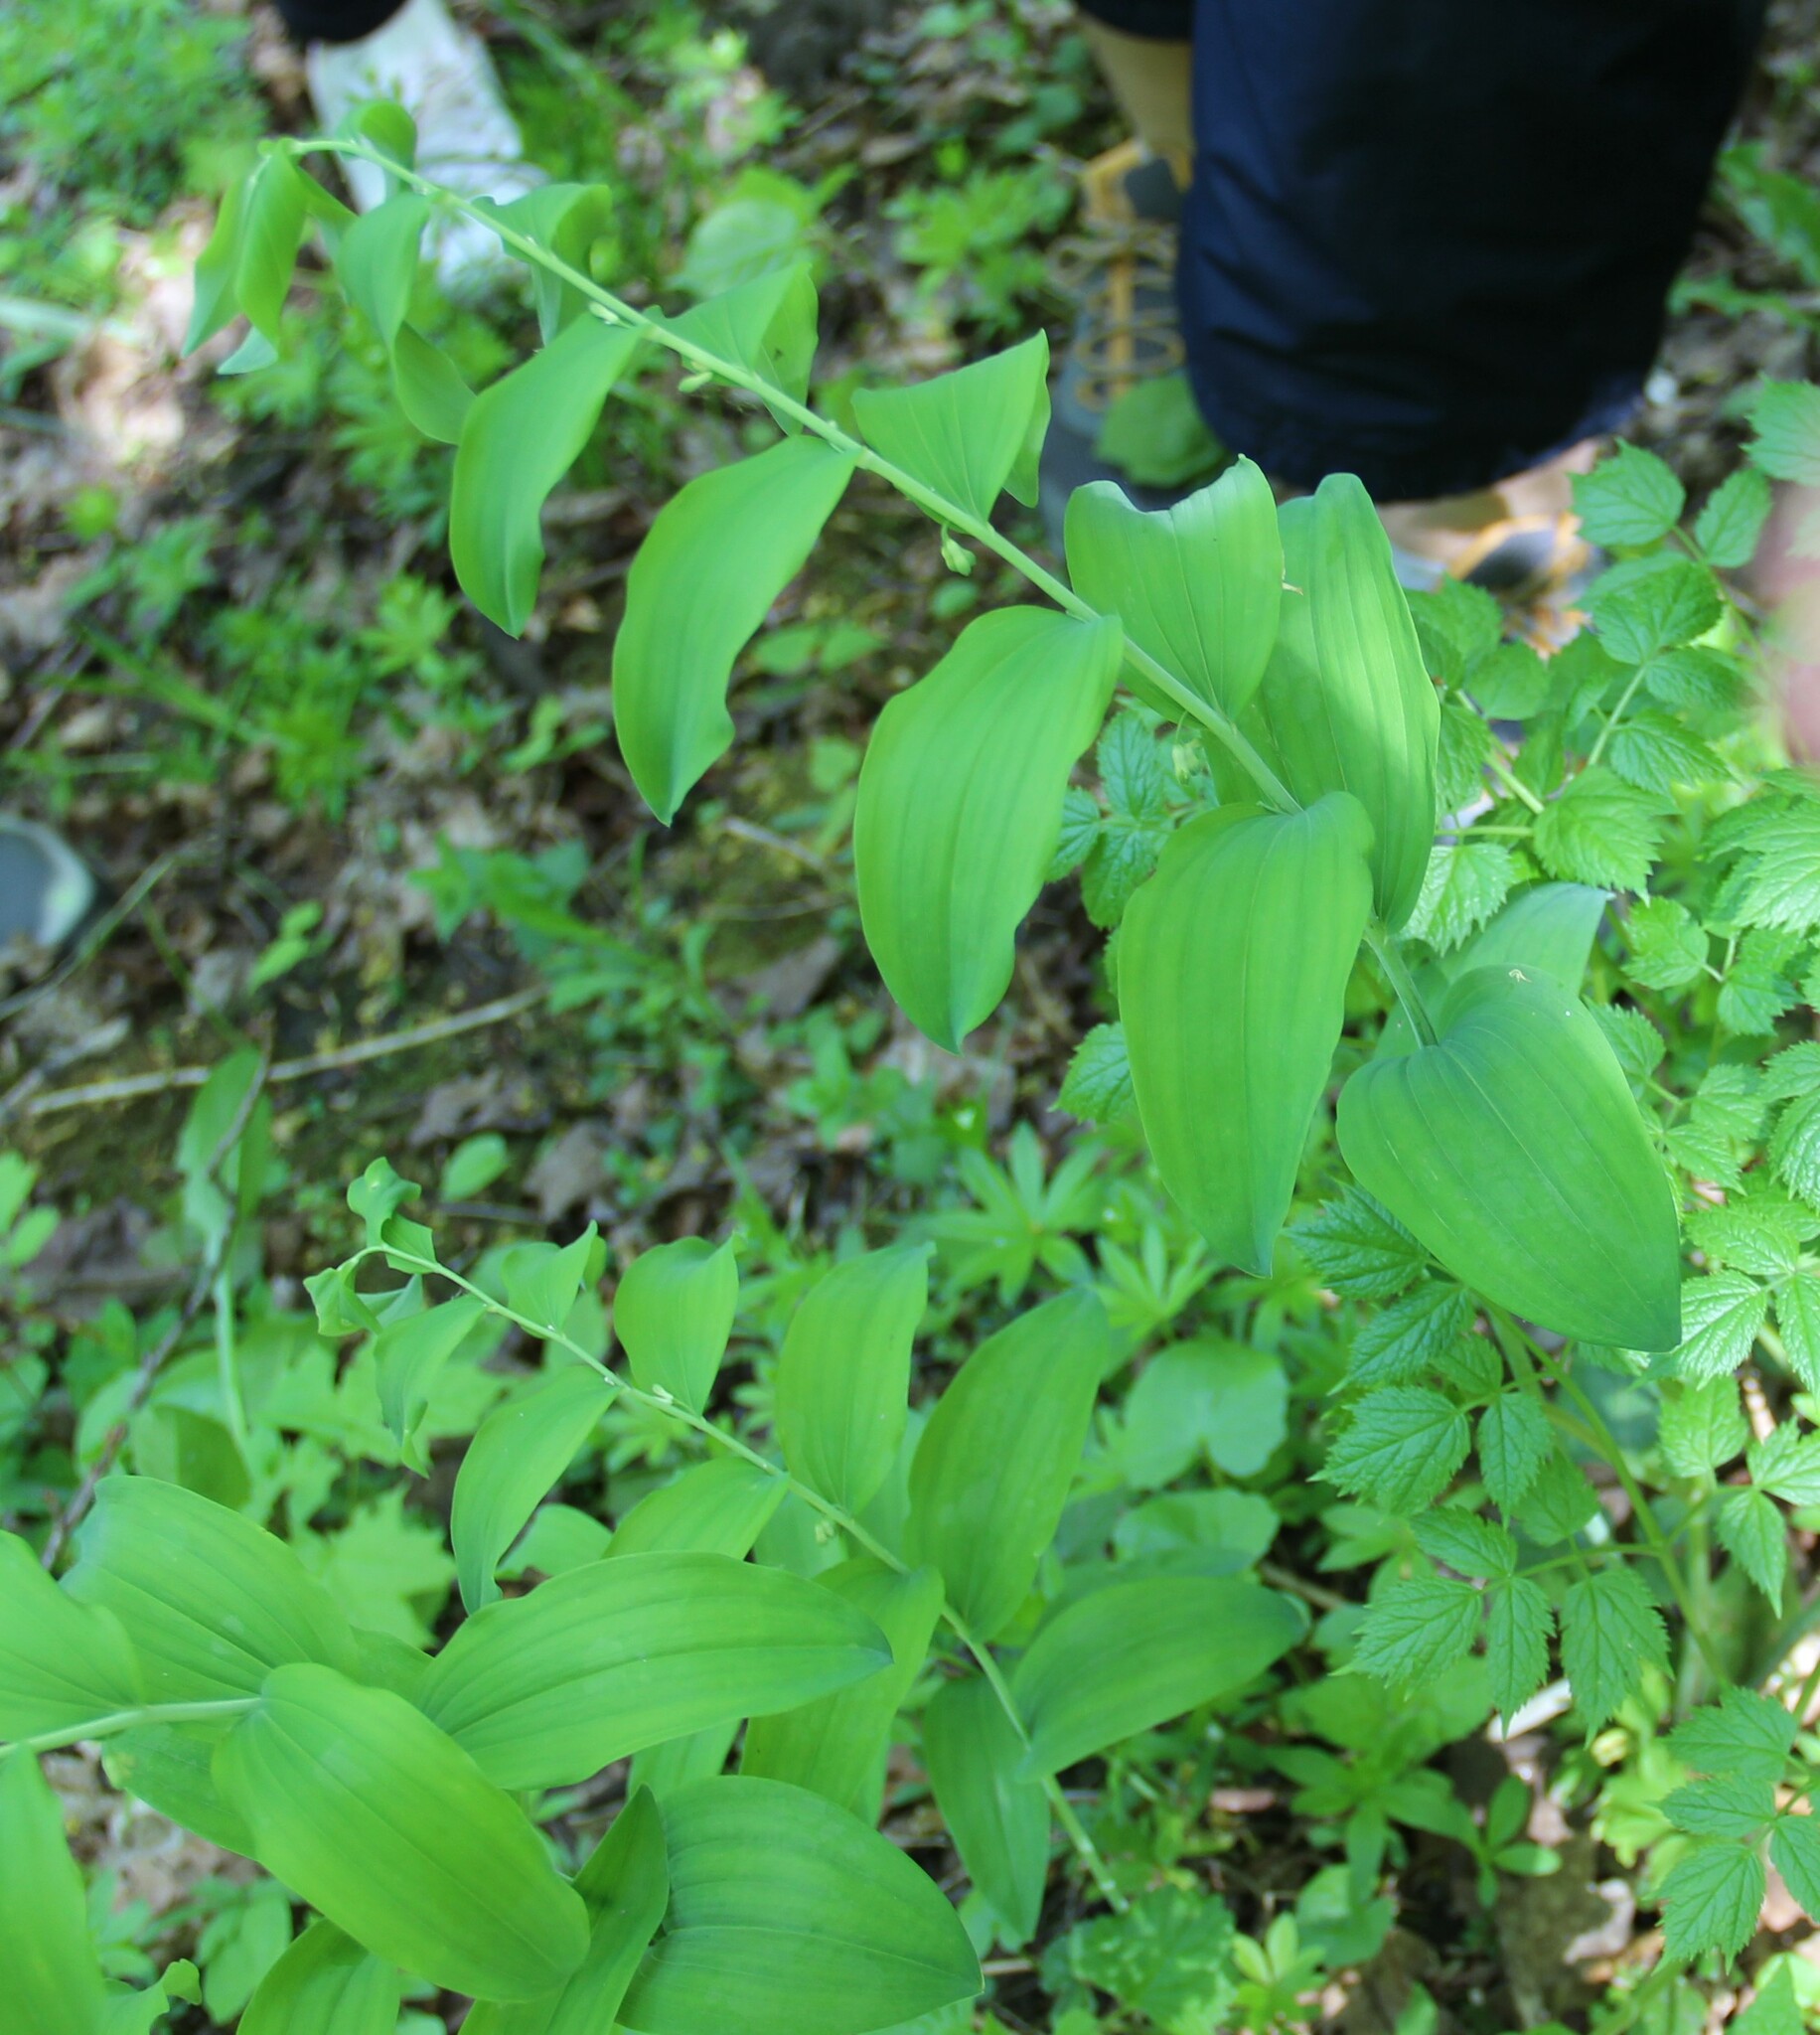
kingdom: Plantae
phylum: Tracheophyta
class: Liliopsida
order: Asparagales
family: Asparagaceae
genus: Polygonatum
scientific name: Polygonatum multiflorum
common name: Solomon's-seal
